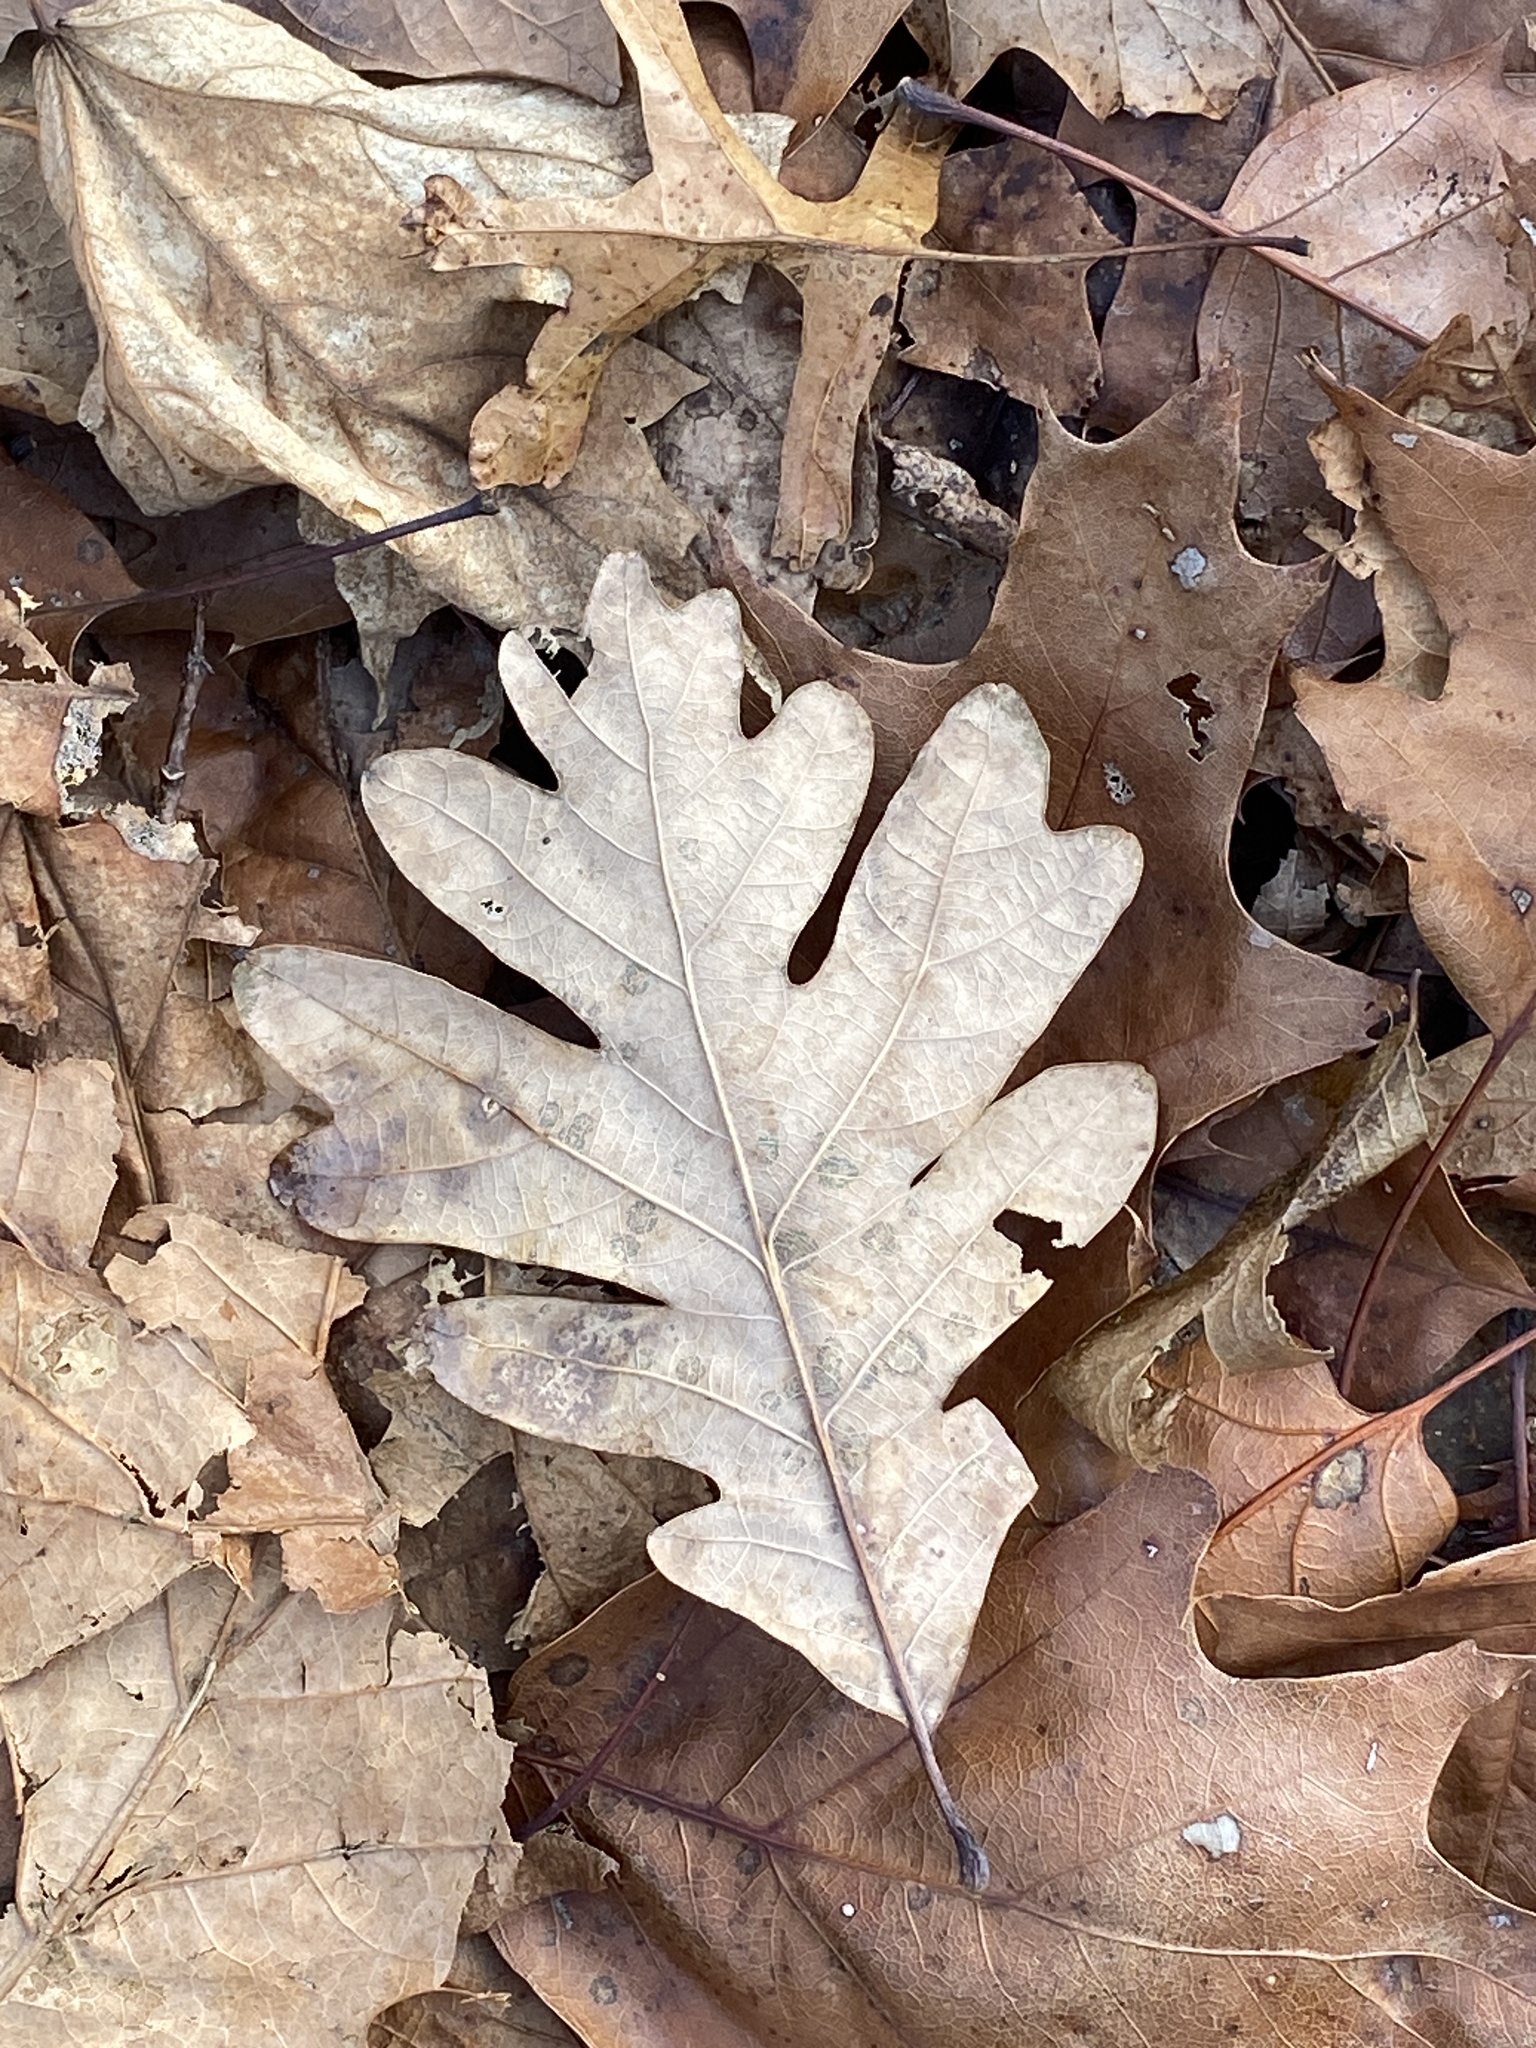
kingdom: Plantae
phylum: Tracheophyta
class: Magnoliopsida
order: Fagales
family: Fagaceae
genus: Quercus
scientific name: Quercus alba
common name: White oak
